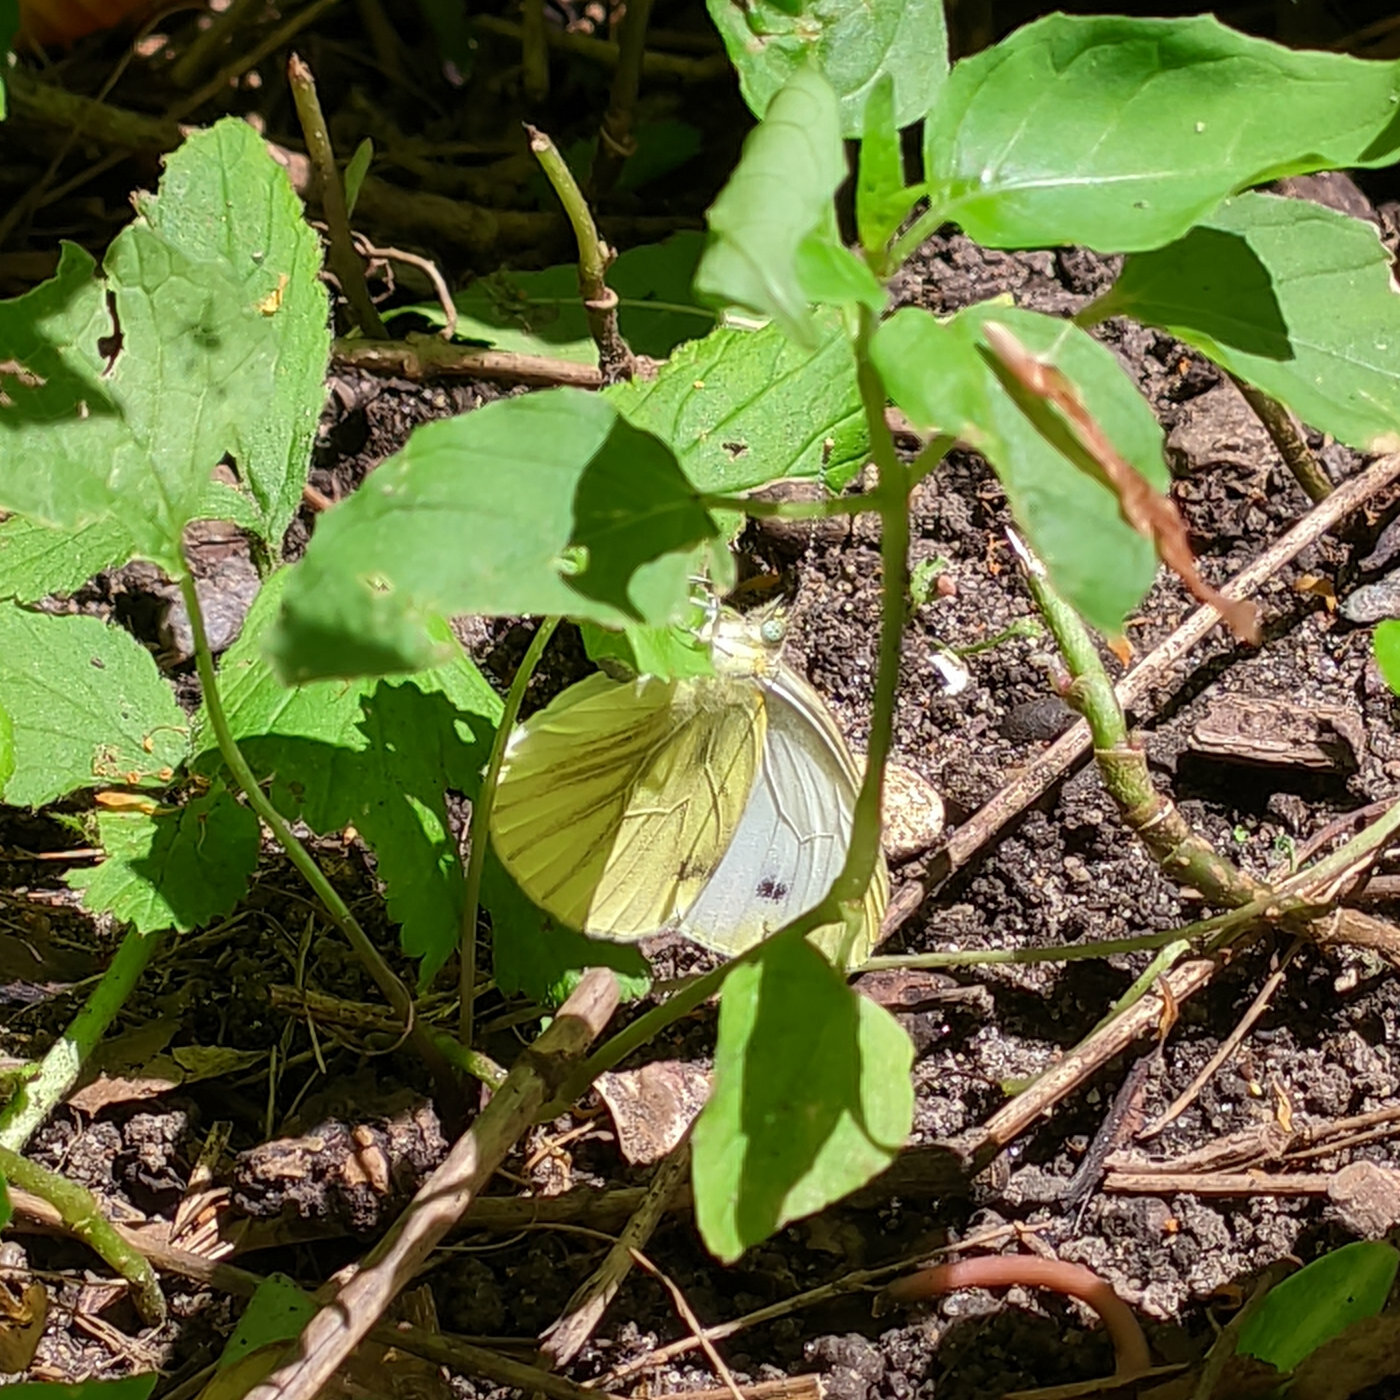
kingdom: Animalia
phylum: Arthropoda
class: Insecta
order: Lepidoptera
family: Pieridae
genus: Pieris
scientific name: Pieris napi
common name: Green-veined white
